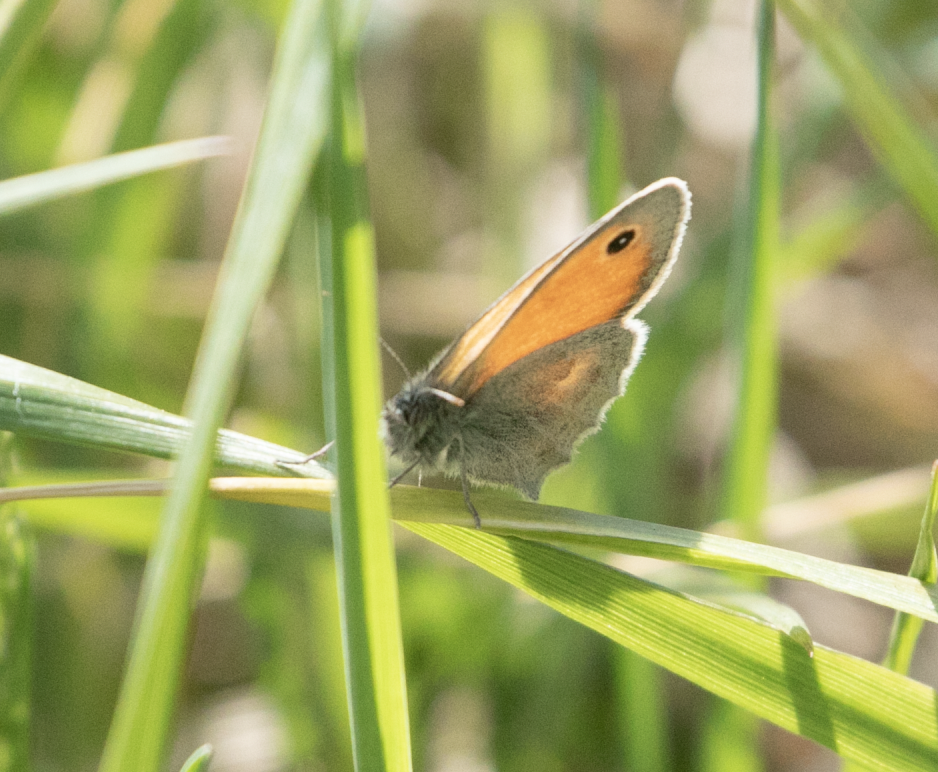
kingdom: Animalia
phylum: Arthropoda
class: Insecta
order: Lepidoptera
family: Nymphalidae
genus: Coenonympha
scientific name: Coenonympha pamphilus
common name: Small heath
